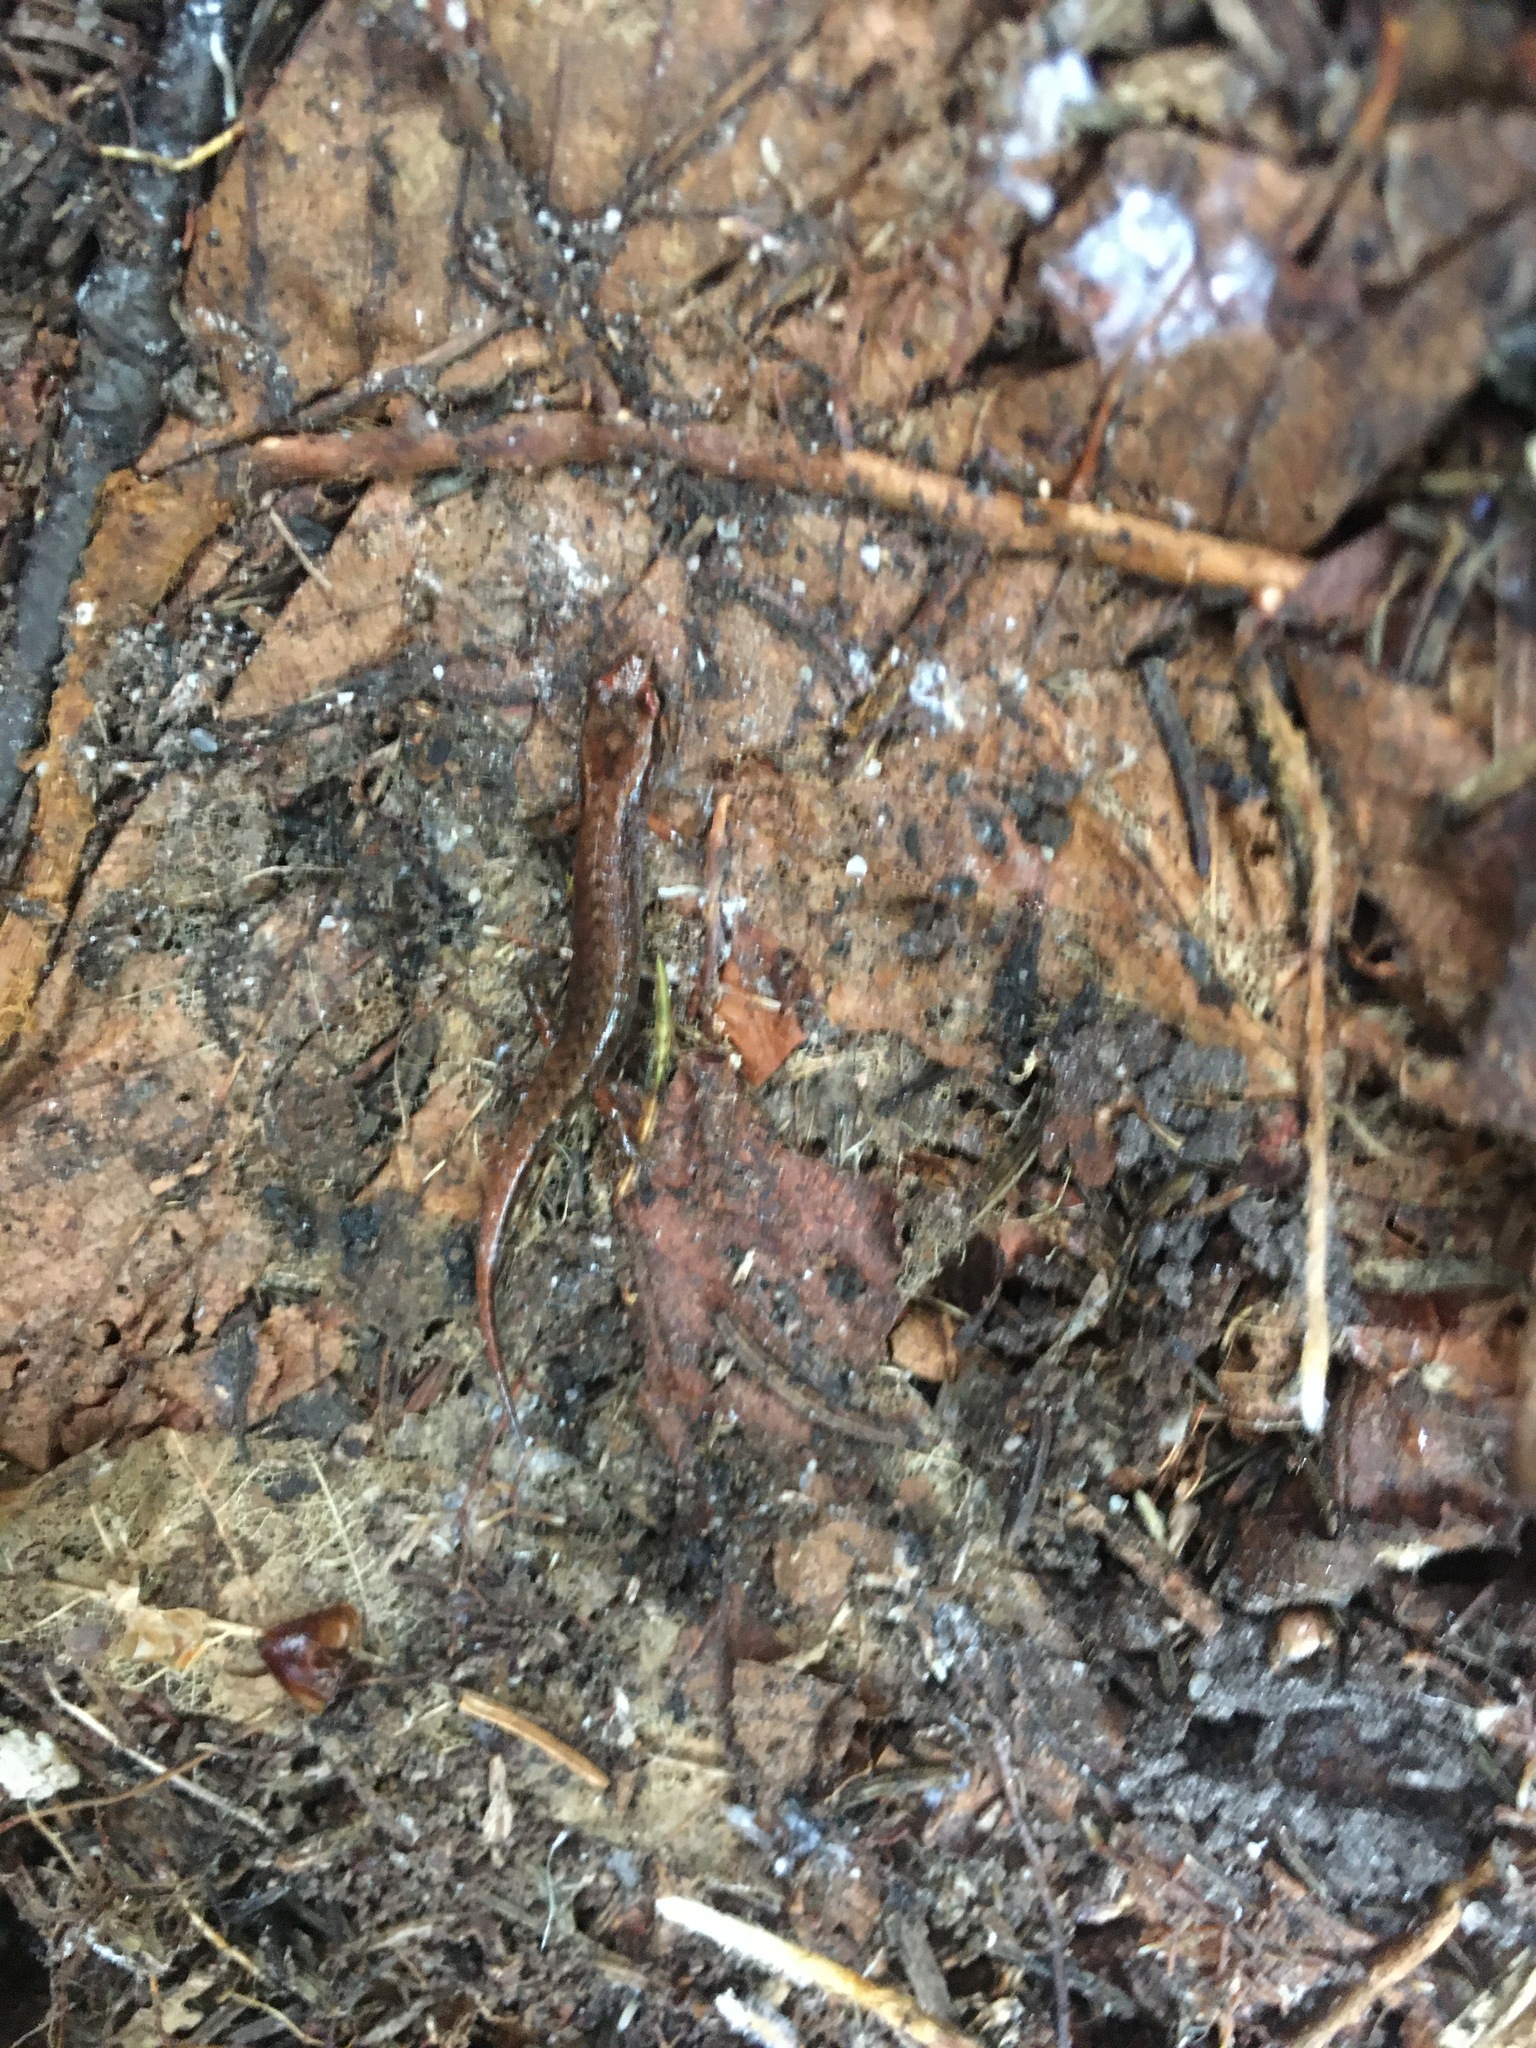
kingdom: Animalia
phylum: Chordata
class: Amphibia
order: Caudata
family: Plethodontidae
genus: Desmognathus
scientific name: Desmognathus organi
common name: Northern pygmy salamander
